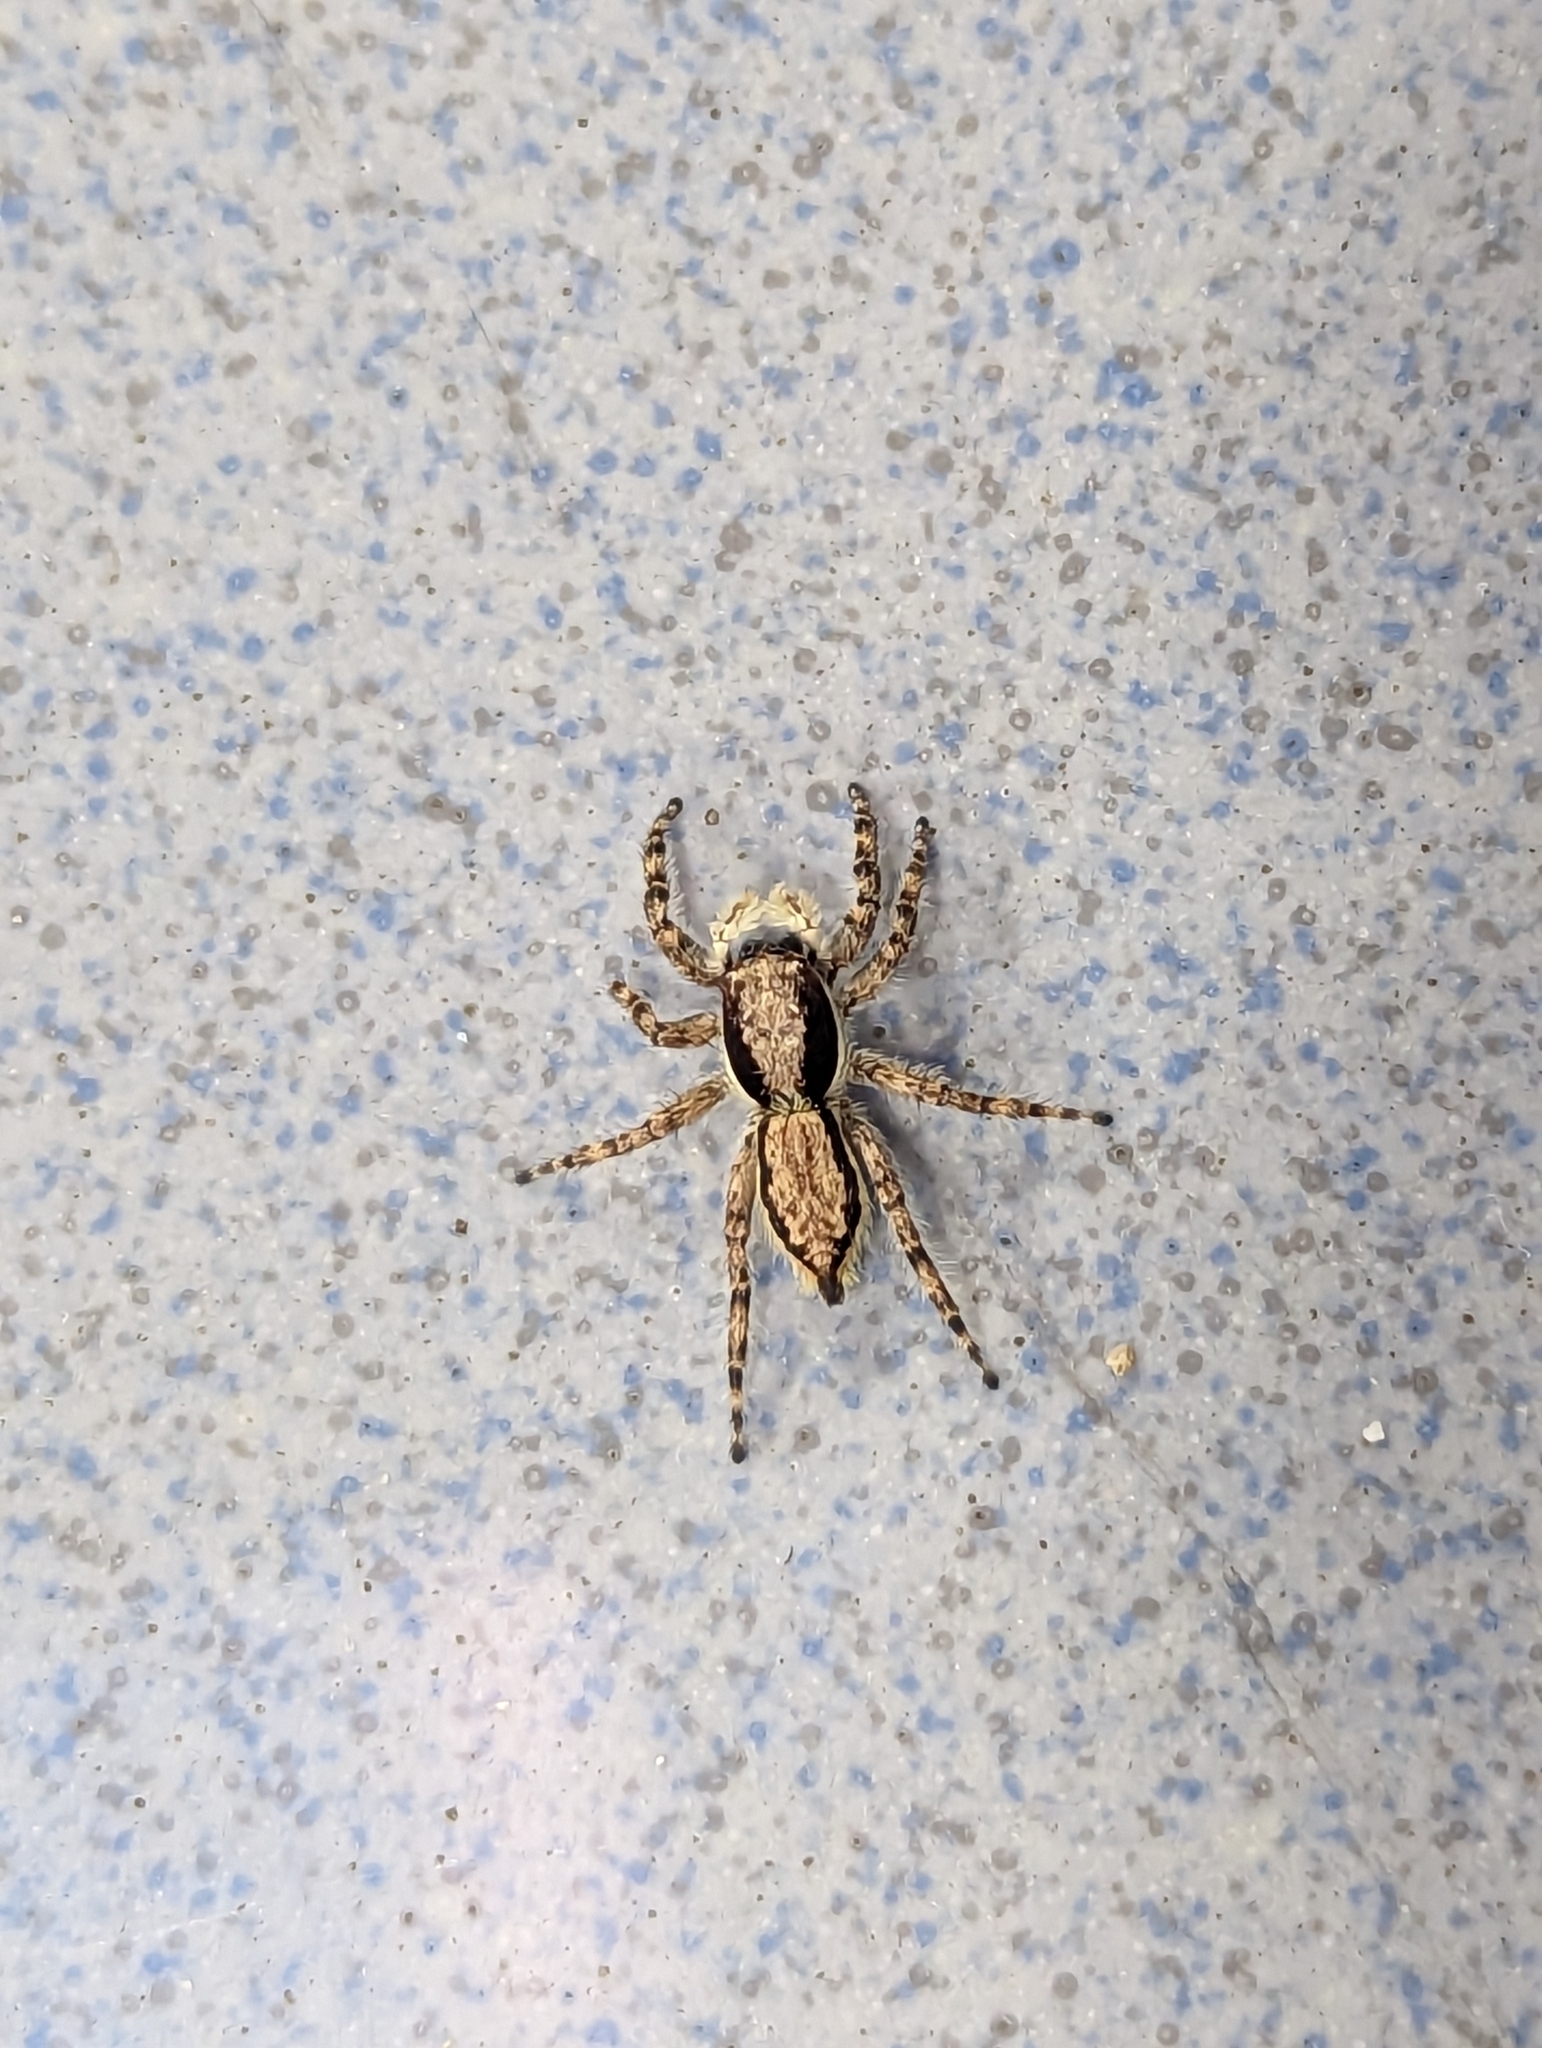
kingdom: Animalia
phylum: Arthropoda
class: Arachnida
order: Araneae
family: Salticidae
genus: Menemerus
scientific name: Menemerus bivittatus
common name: Gray wall jumper
